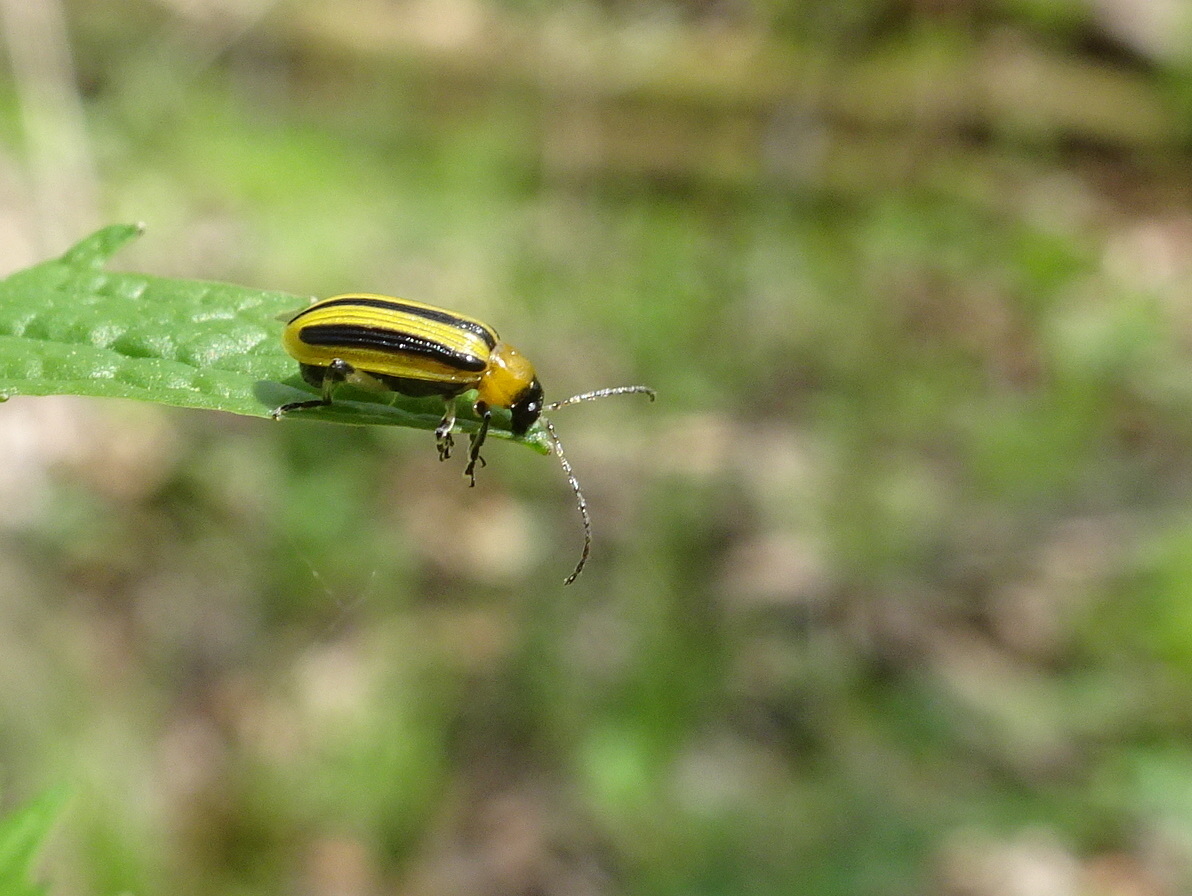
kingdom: Animalia
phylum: Arthropoda
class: Insecta
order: Coleoptera
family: Chrysomelidae
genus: Acalymma
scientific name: Acalymma vittatum
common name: Striped cucumber beetle
